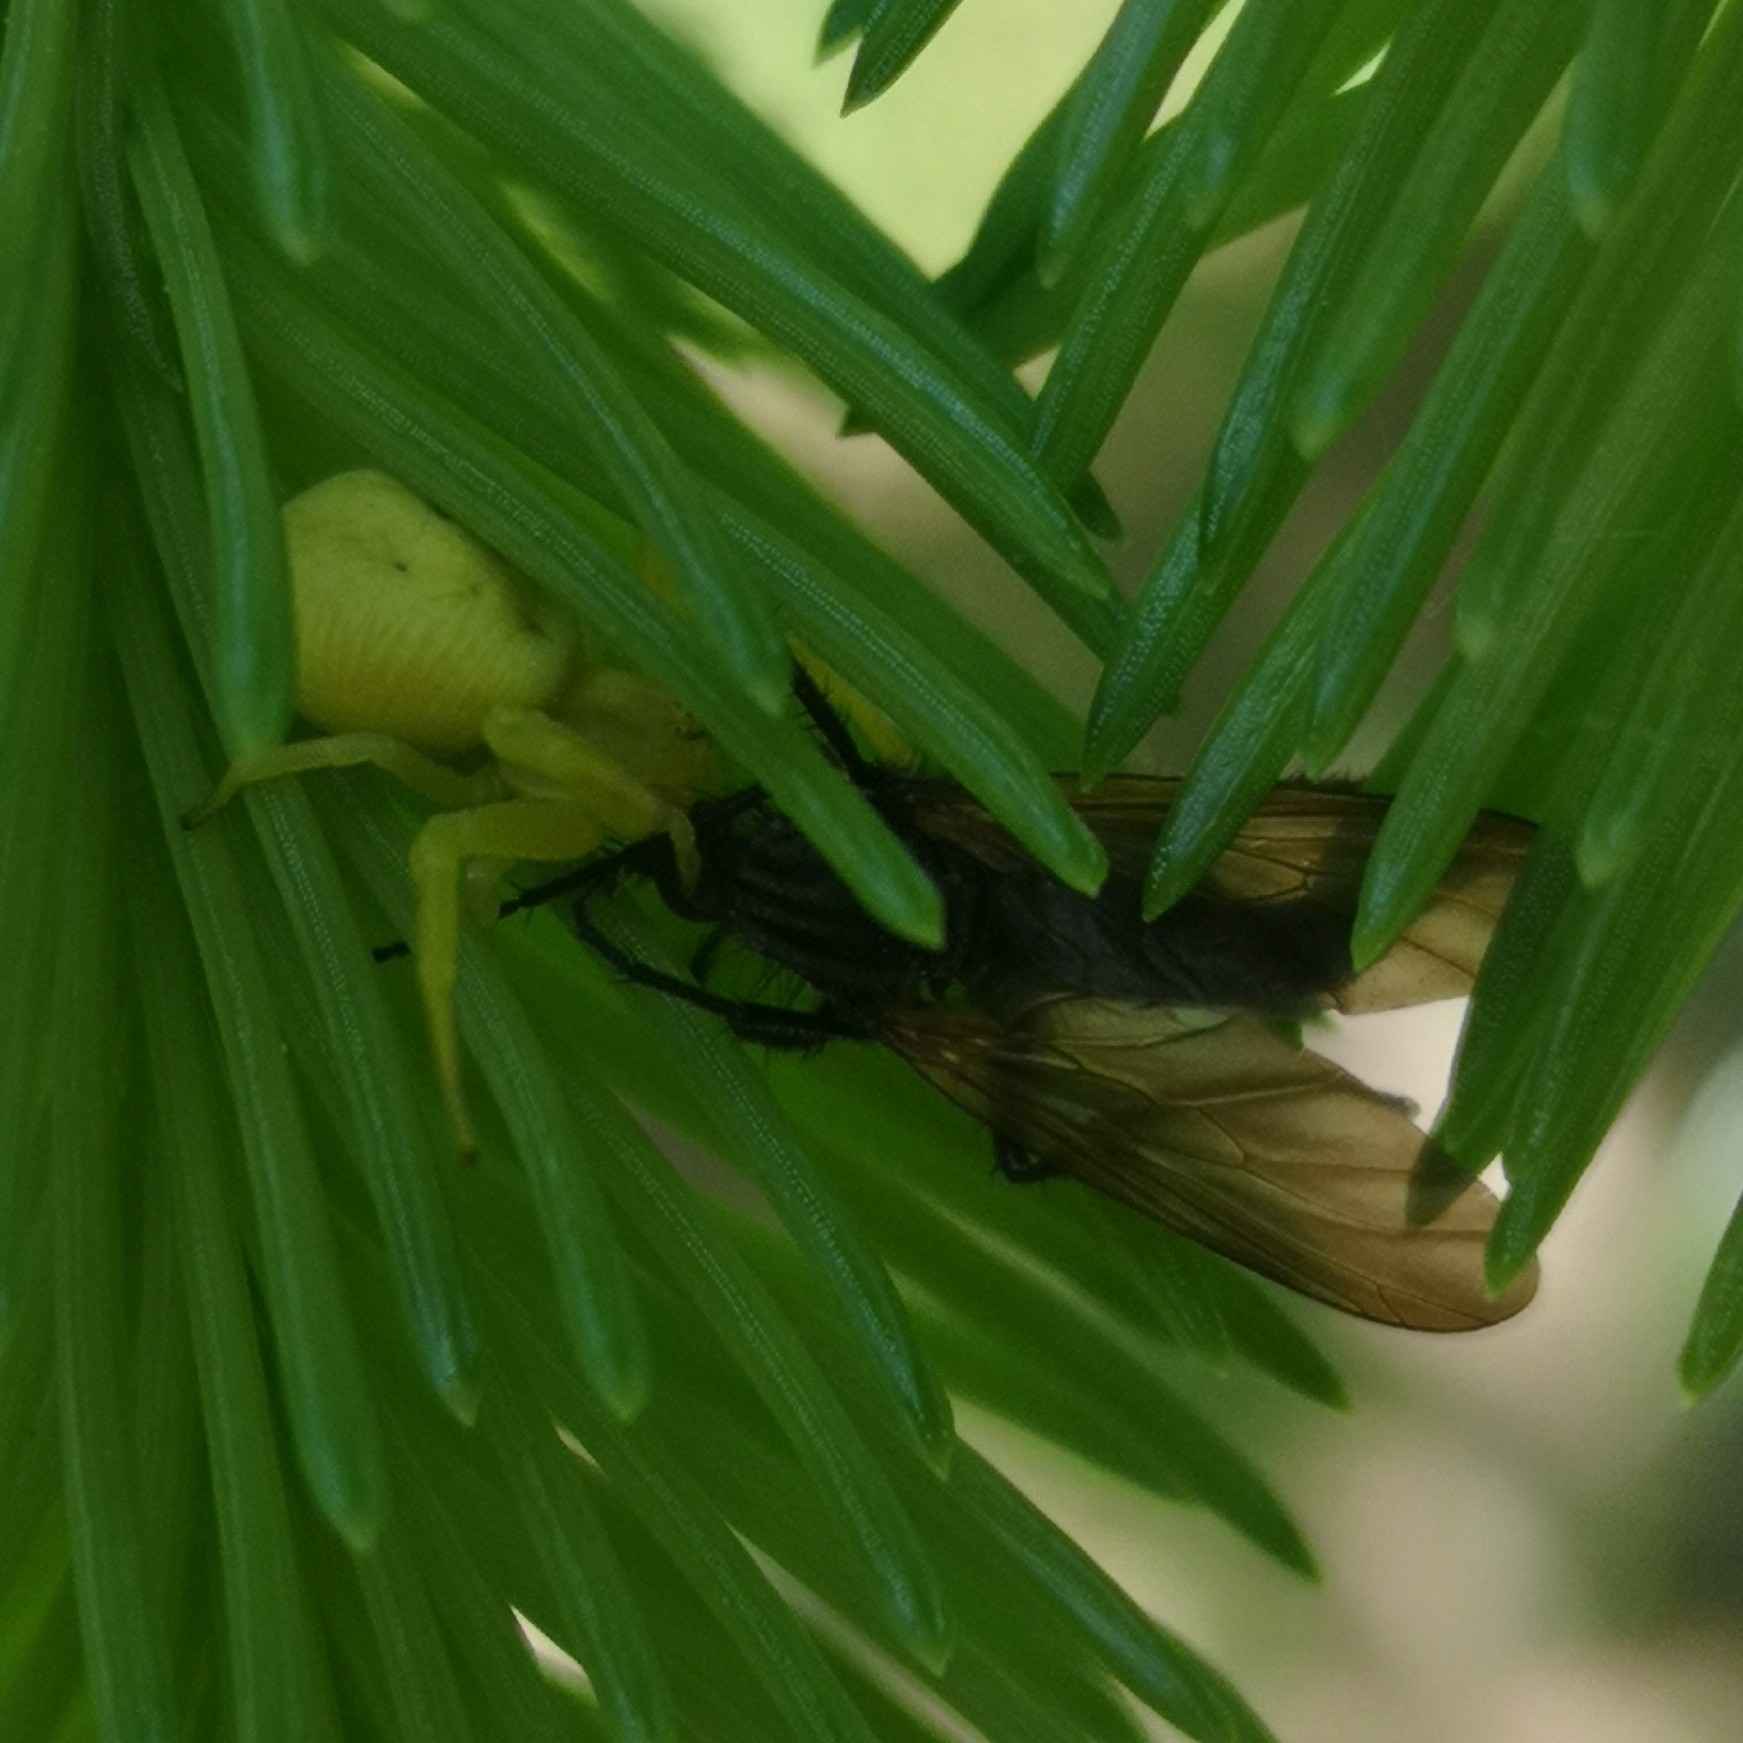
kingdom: Animalia
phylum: Arthropoda
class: Arachnida
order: Araneae
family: Thomisidae
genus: Misumena
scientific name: Misumena vatia
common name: Goldenrod crab spider
